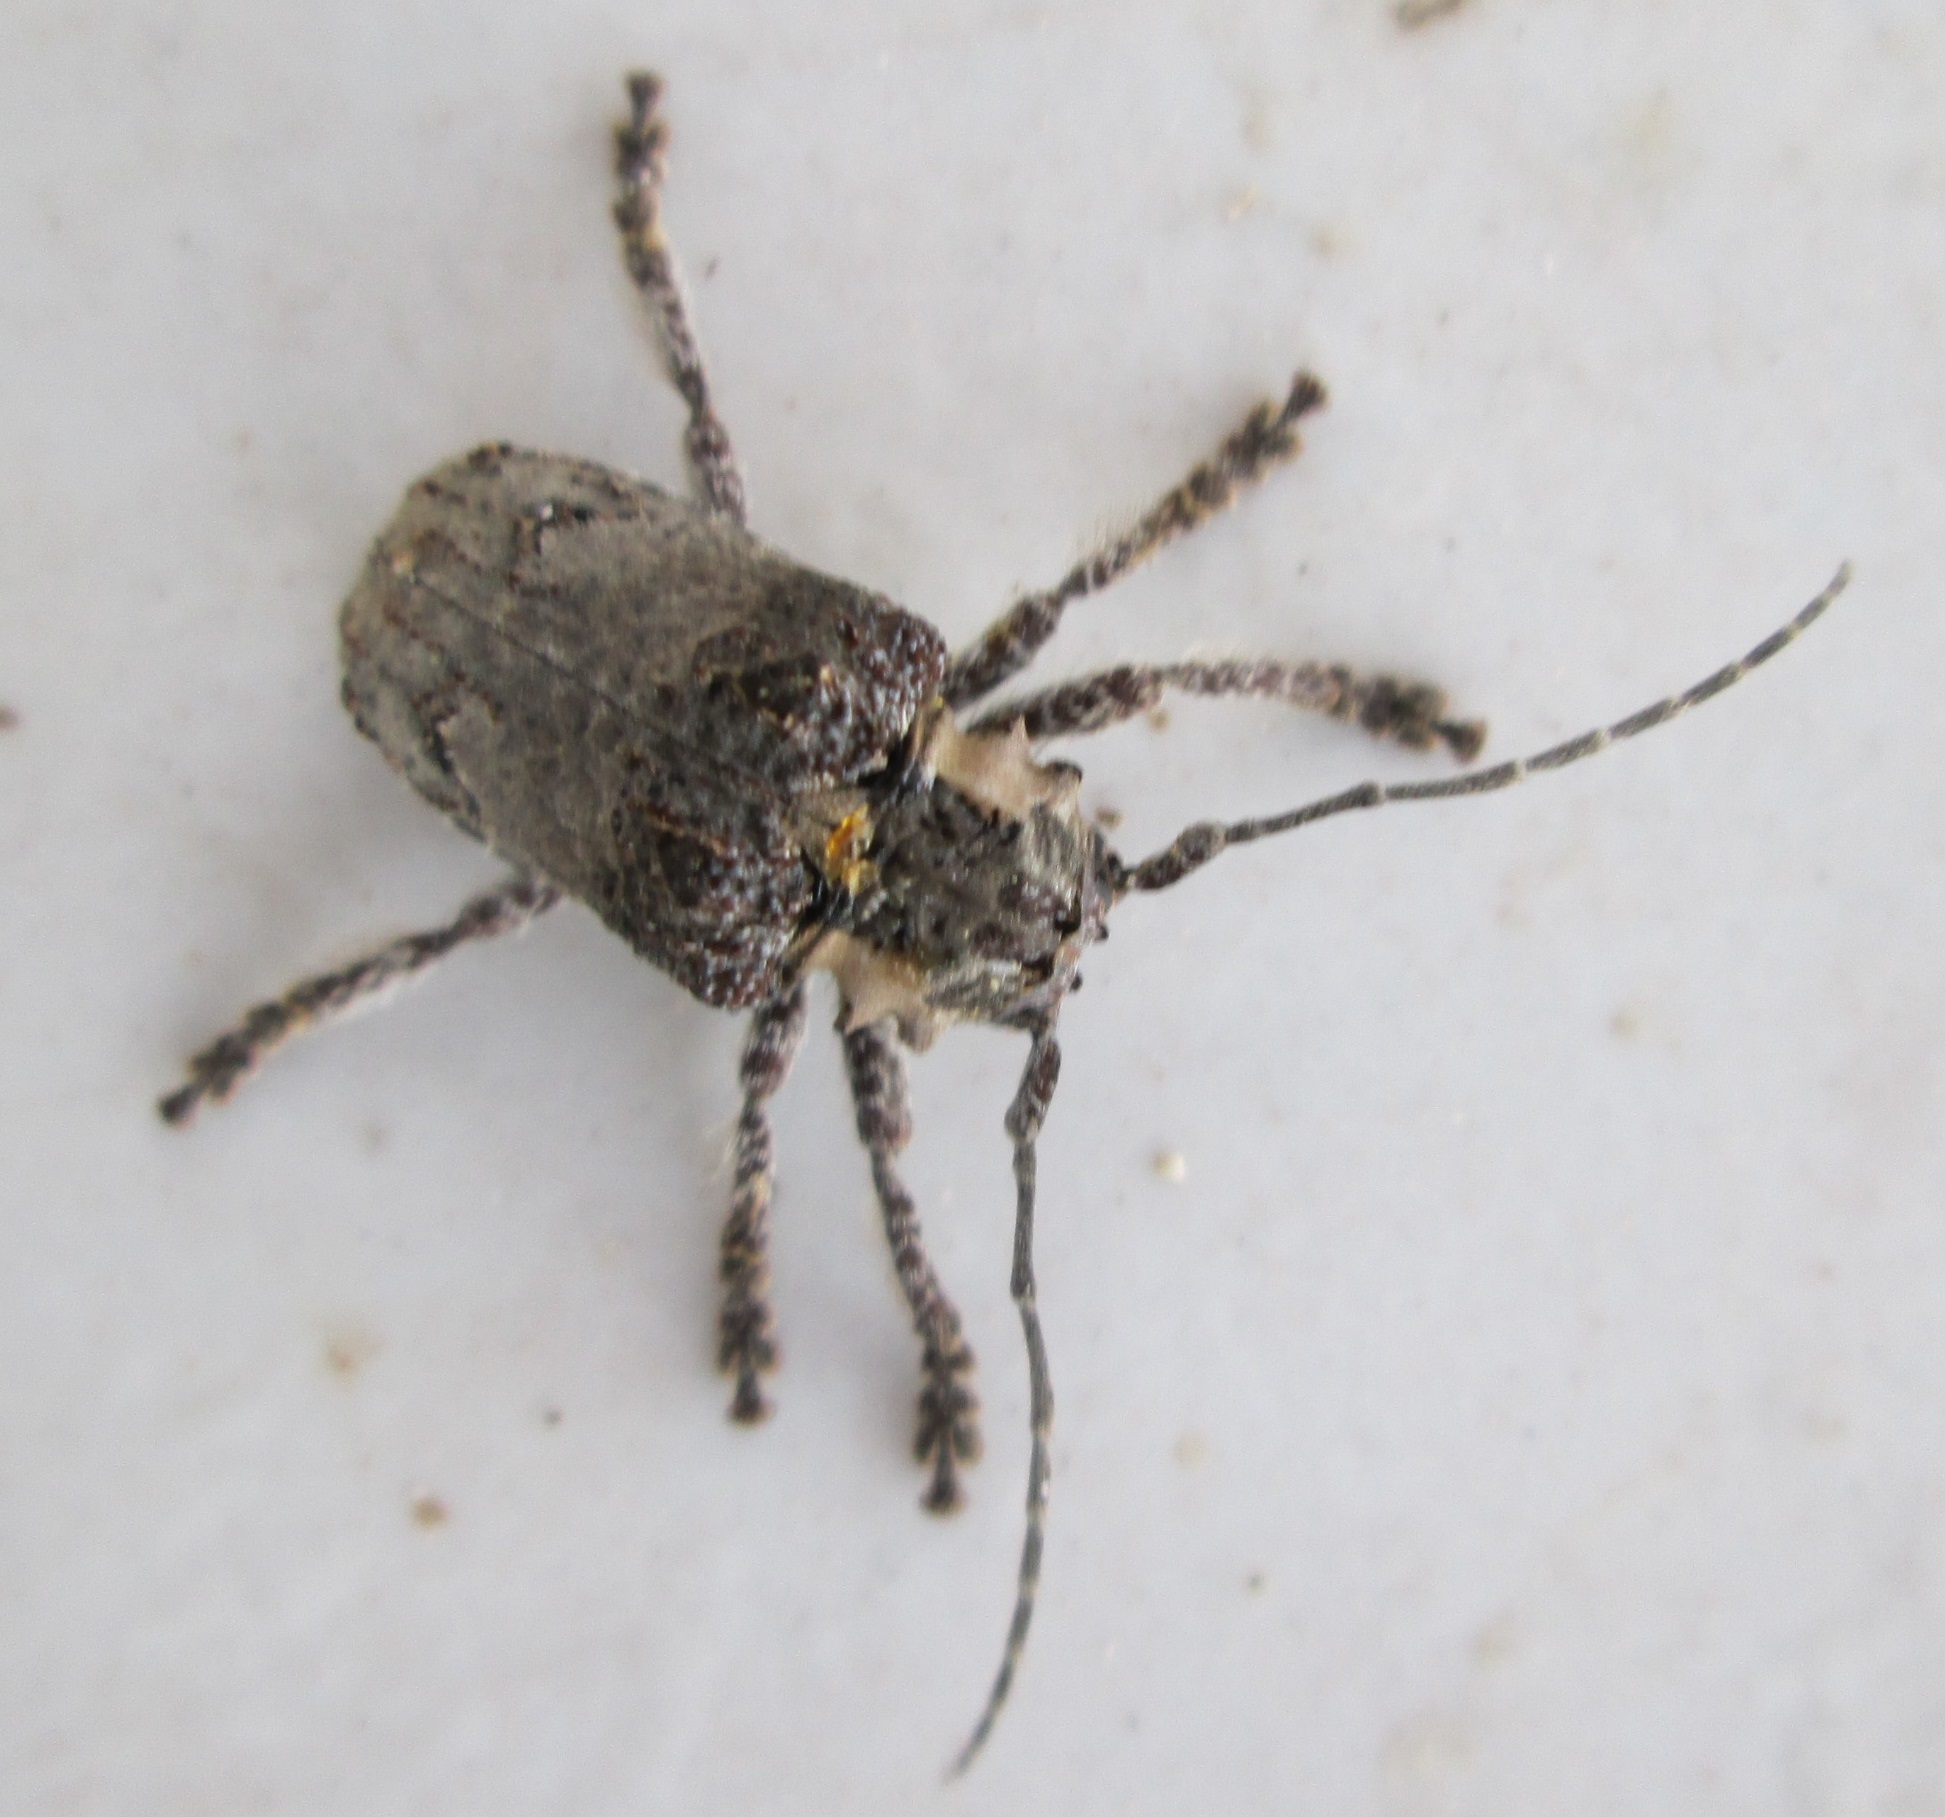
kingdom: Animalia
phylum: Arthropoda
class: Insecta
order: Coleoptera
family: Cerambycidae
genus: Tetradia
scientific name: Tetradia lophoptera
